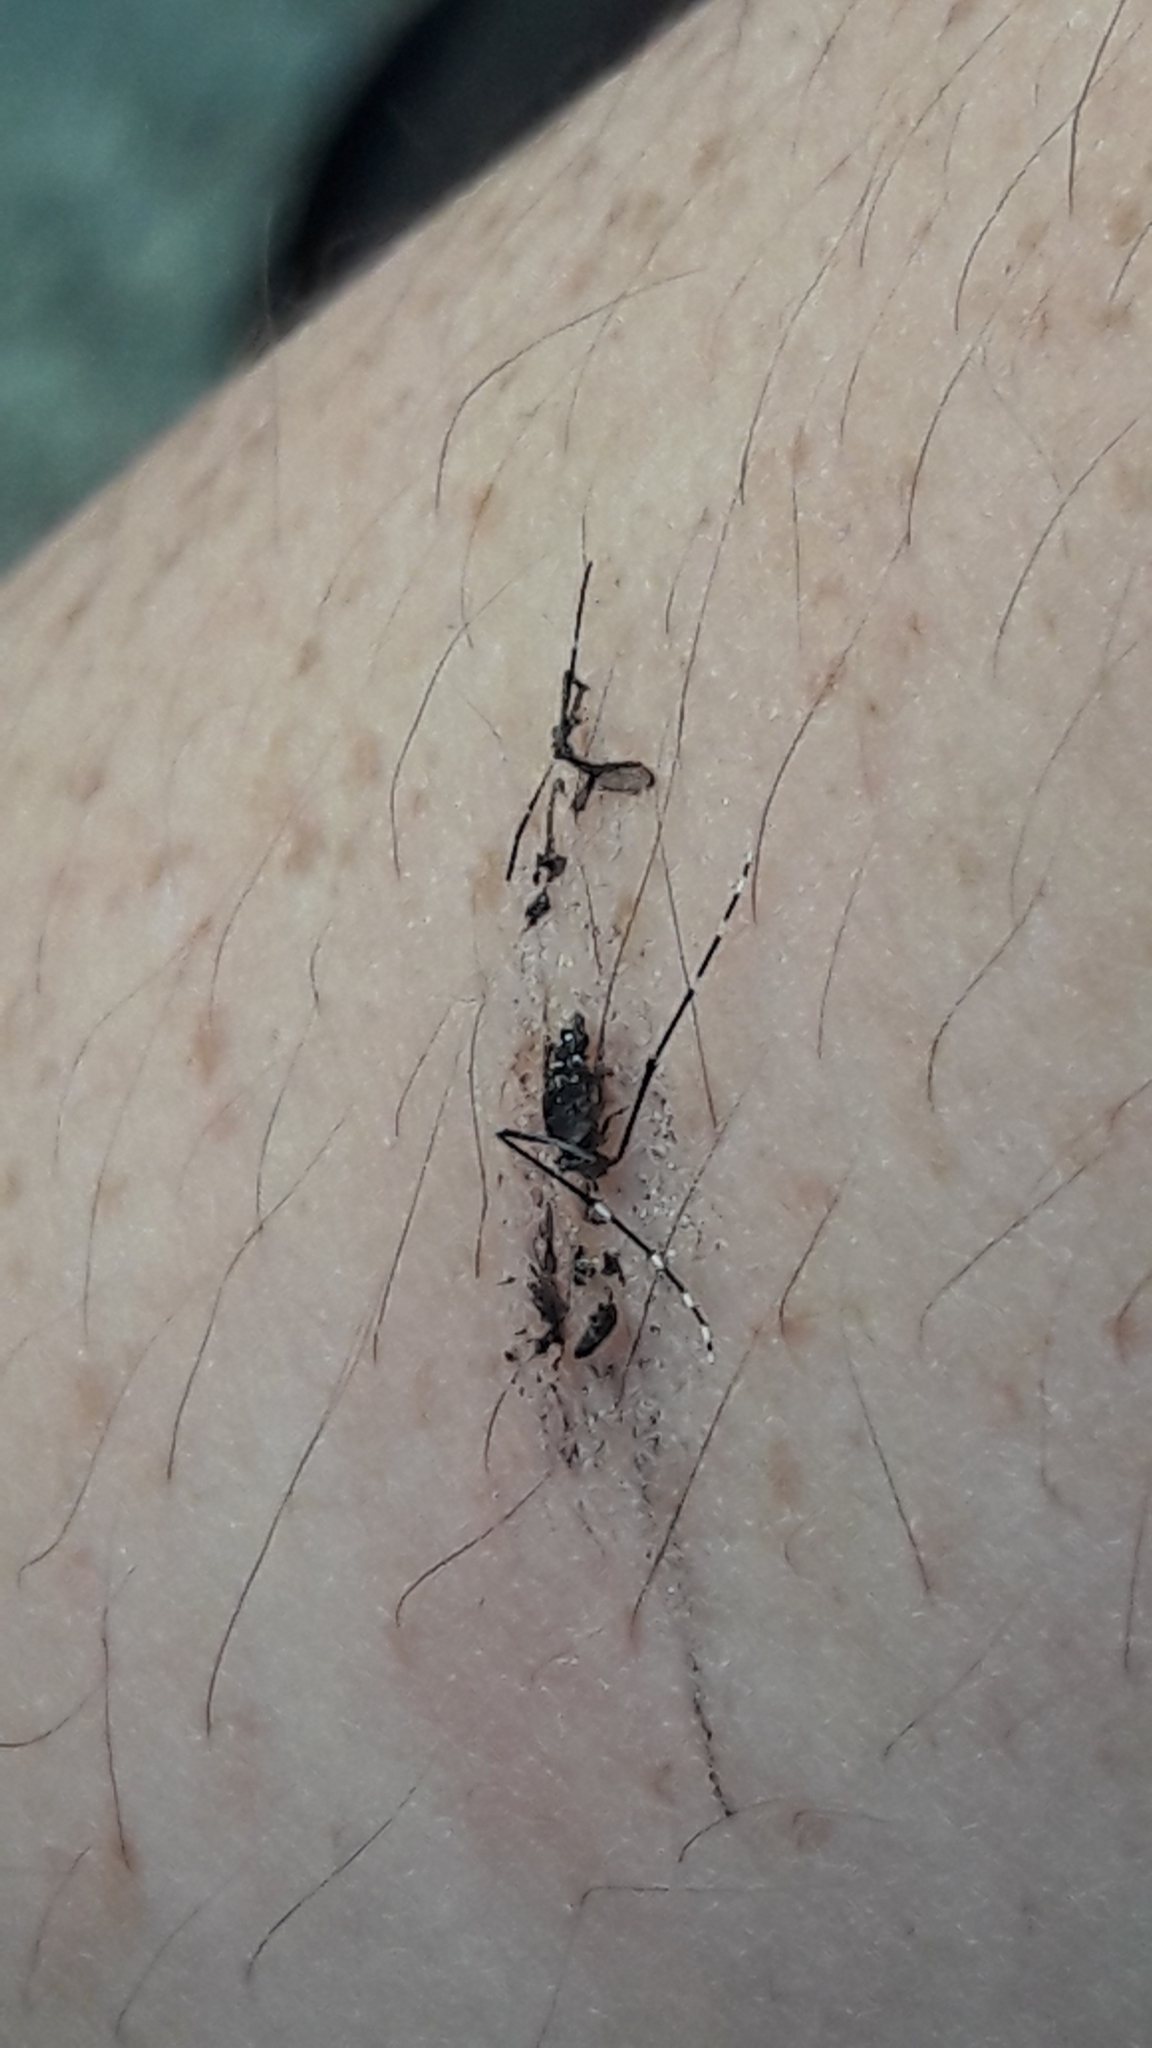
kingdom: Animalia
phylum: Arthropoda
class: Insecta
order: Diptera
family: Culicidae
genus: Aedes
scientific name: Aedes albopictus
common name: Tiger mosquito
